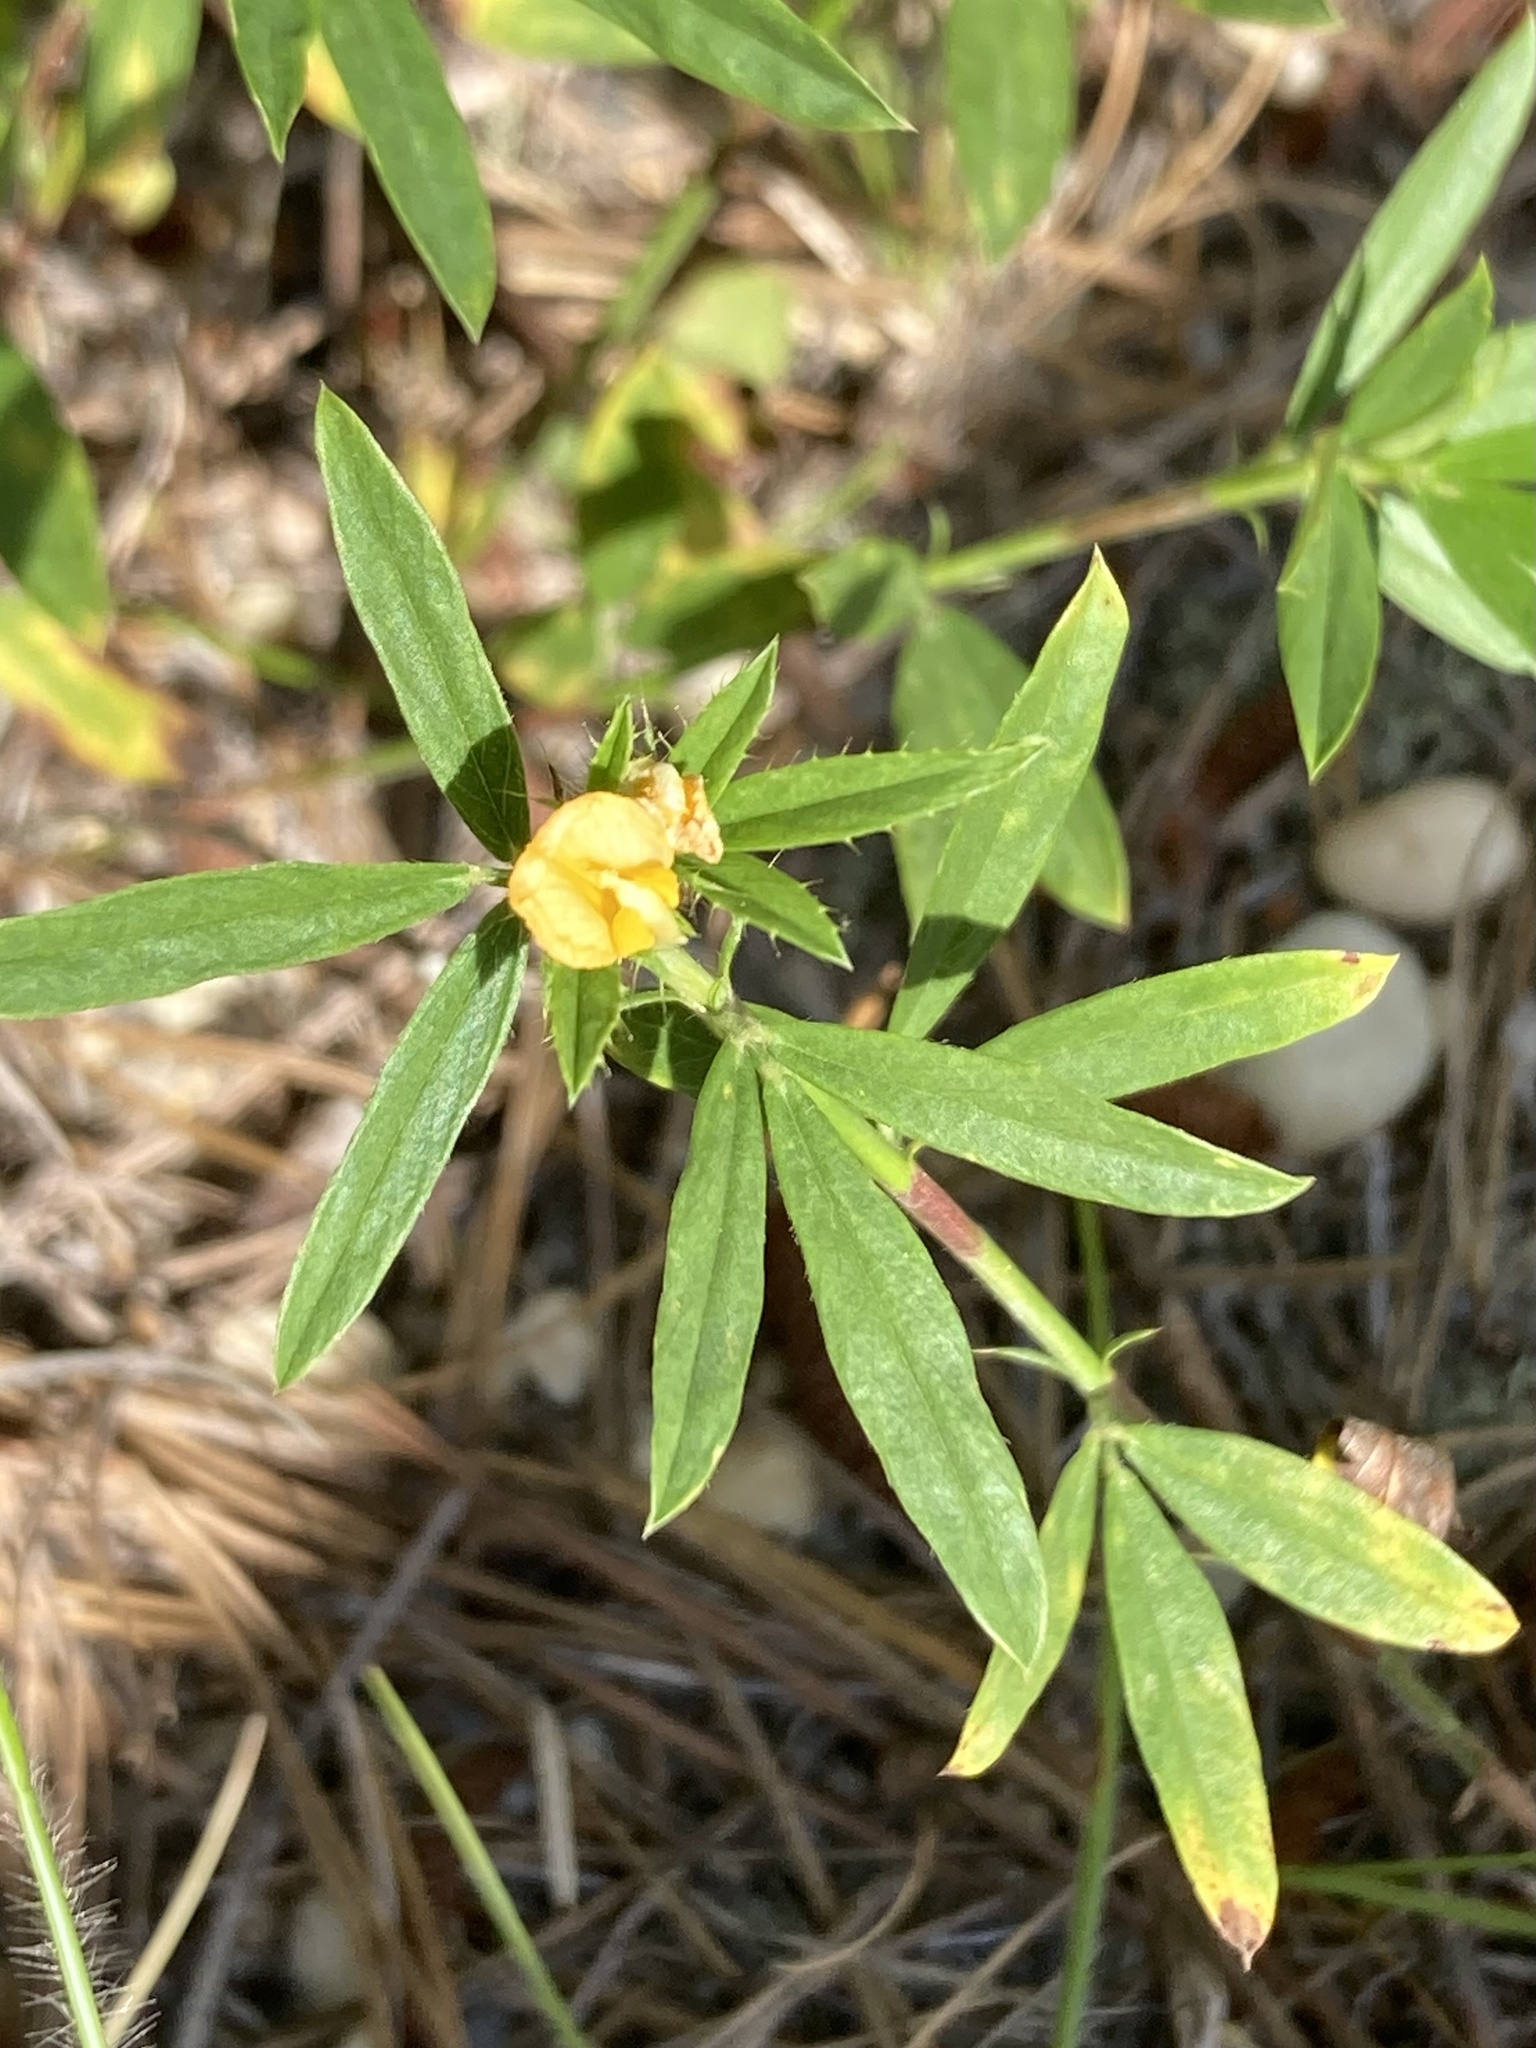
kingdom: Plantae
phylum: Tracheophyta
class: Magnoliopsida
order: Fabales
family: Fabaceae
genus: Stylosanthes
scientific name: Stylosanthes biflora
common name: Two-flower pencil-flower
